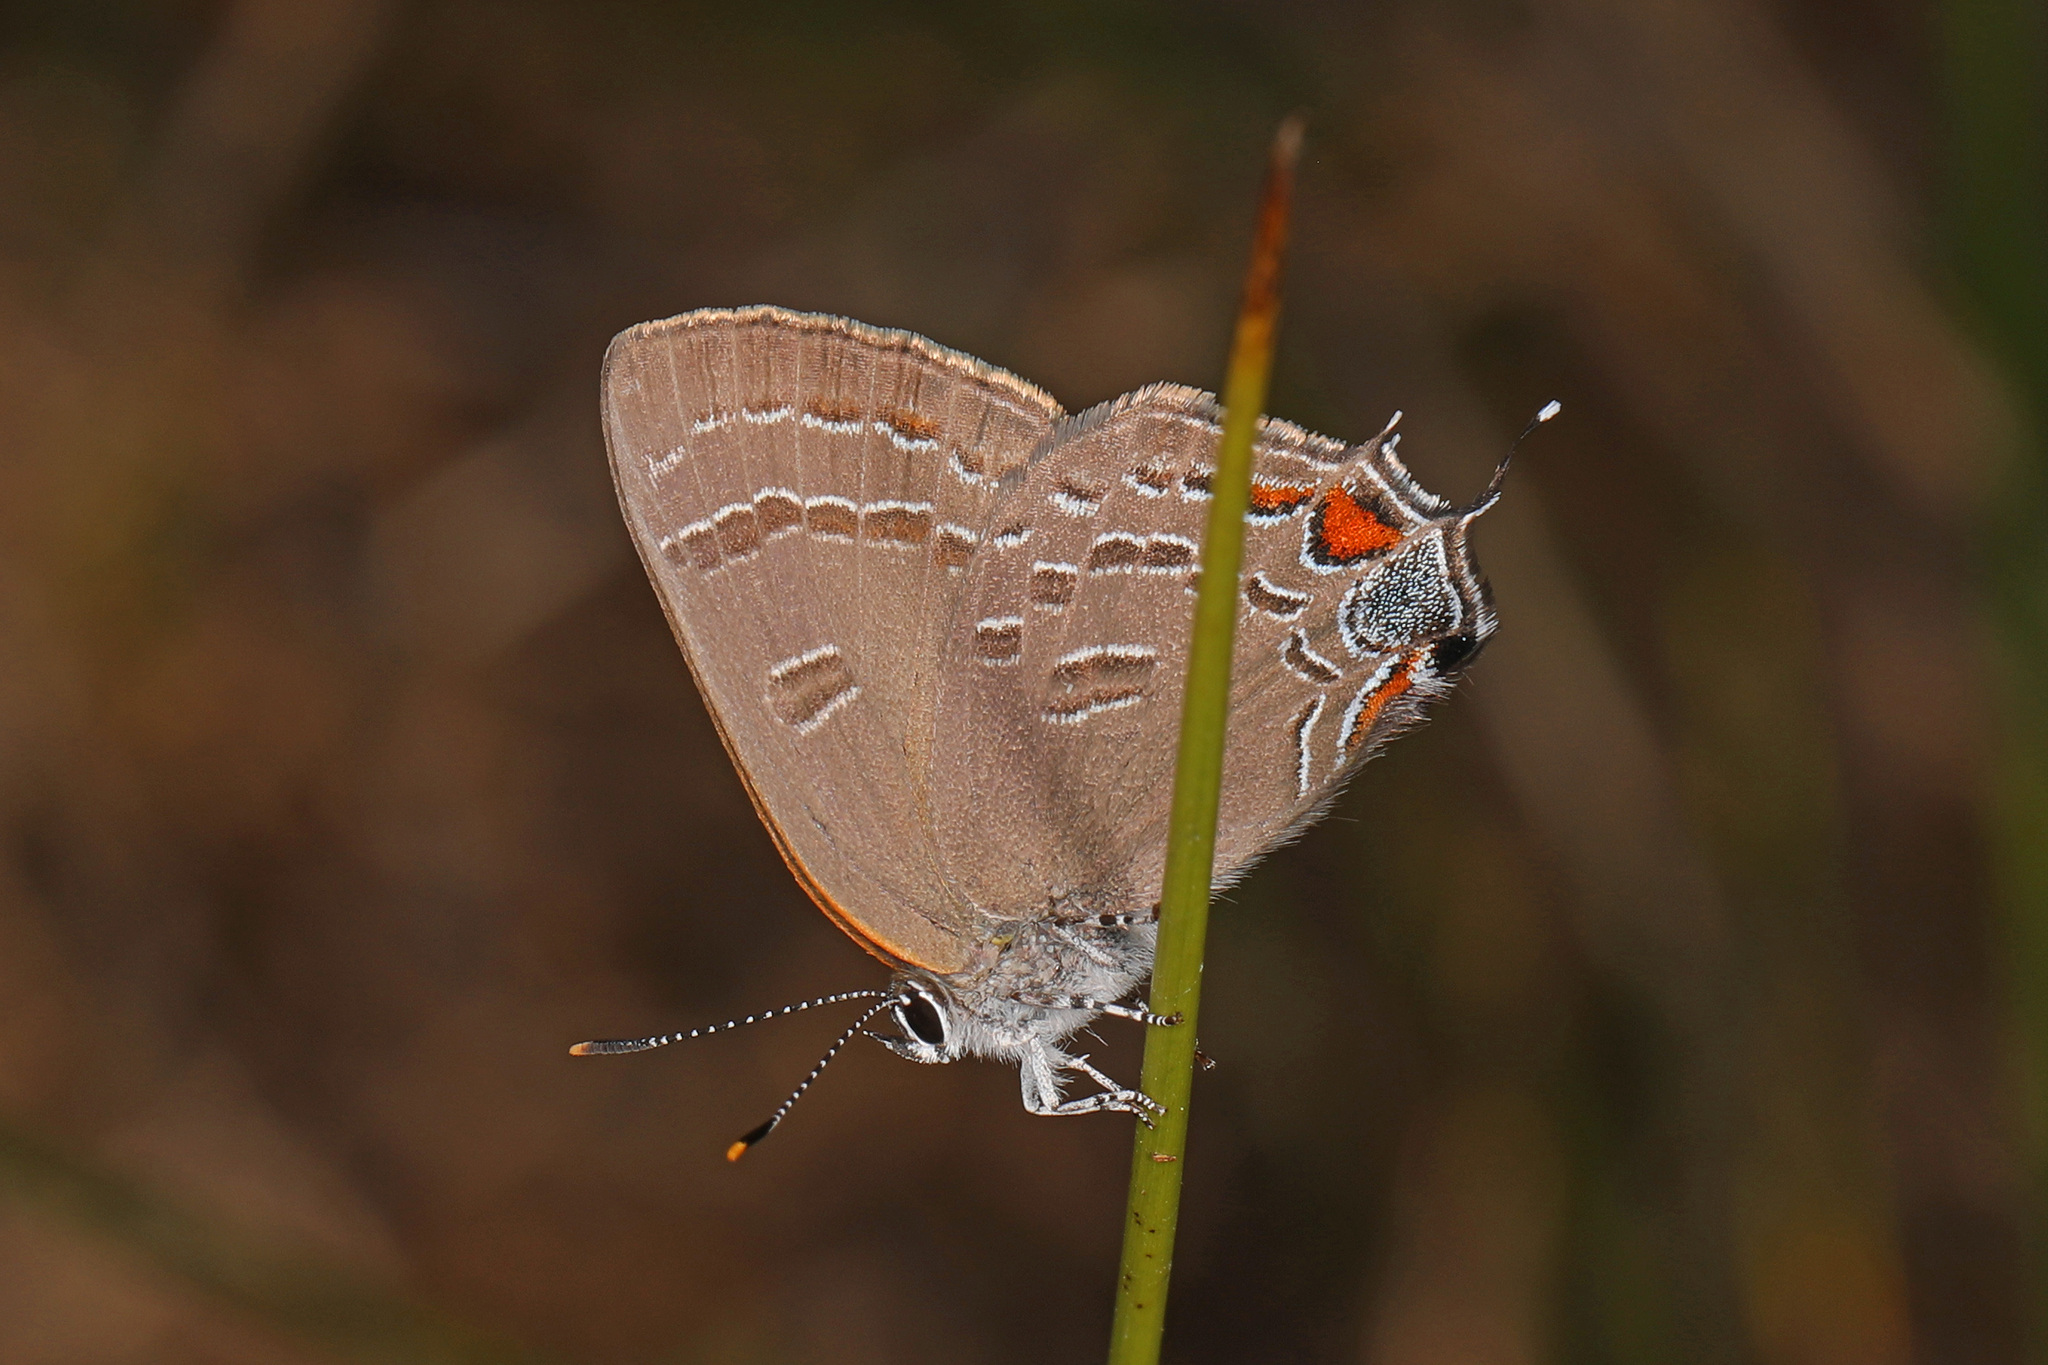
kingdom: Animalia
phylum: Arthropoda
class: Insecta
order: Lepidoptera
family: Lycaenidae
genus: Satyrium
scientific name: Satyrium calanus
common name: Banded hairstreak
